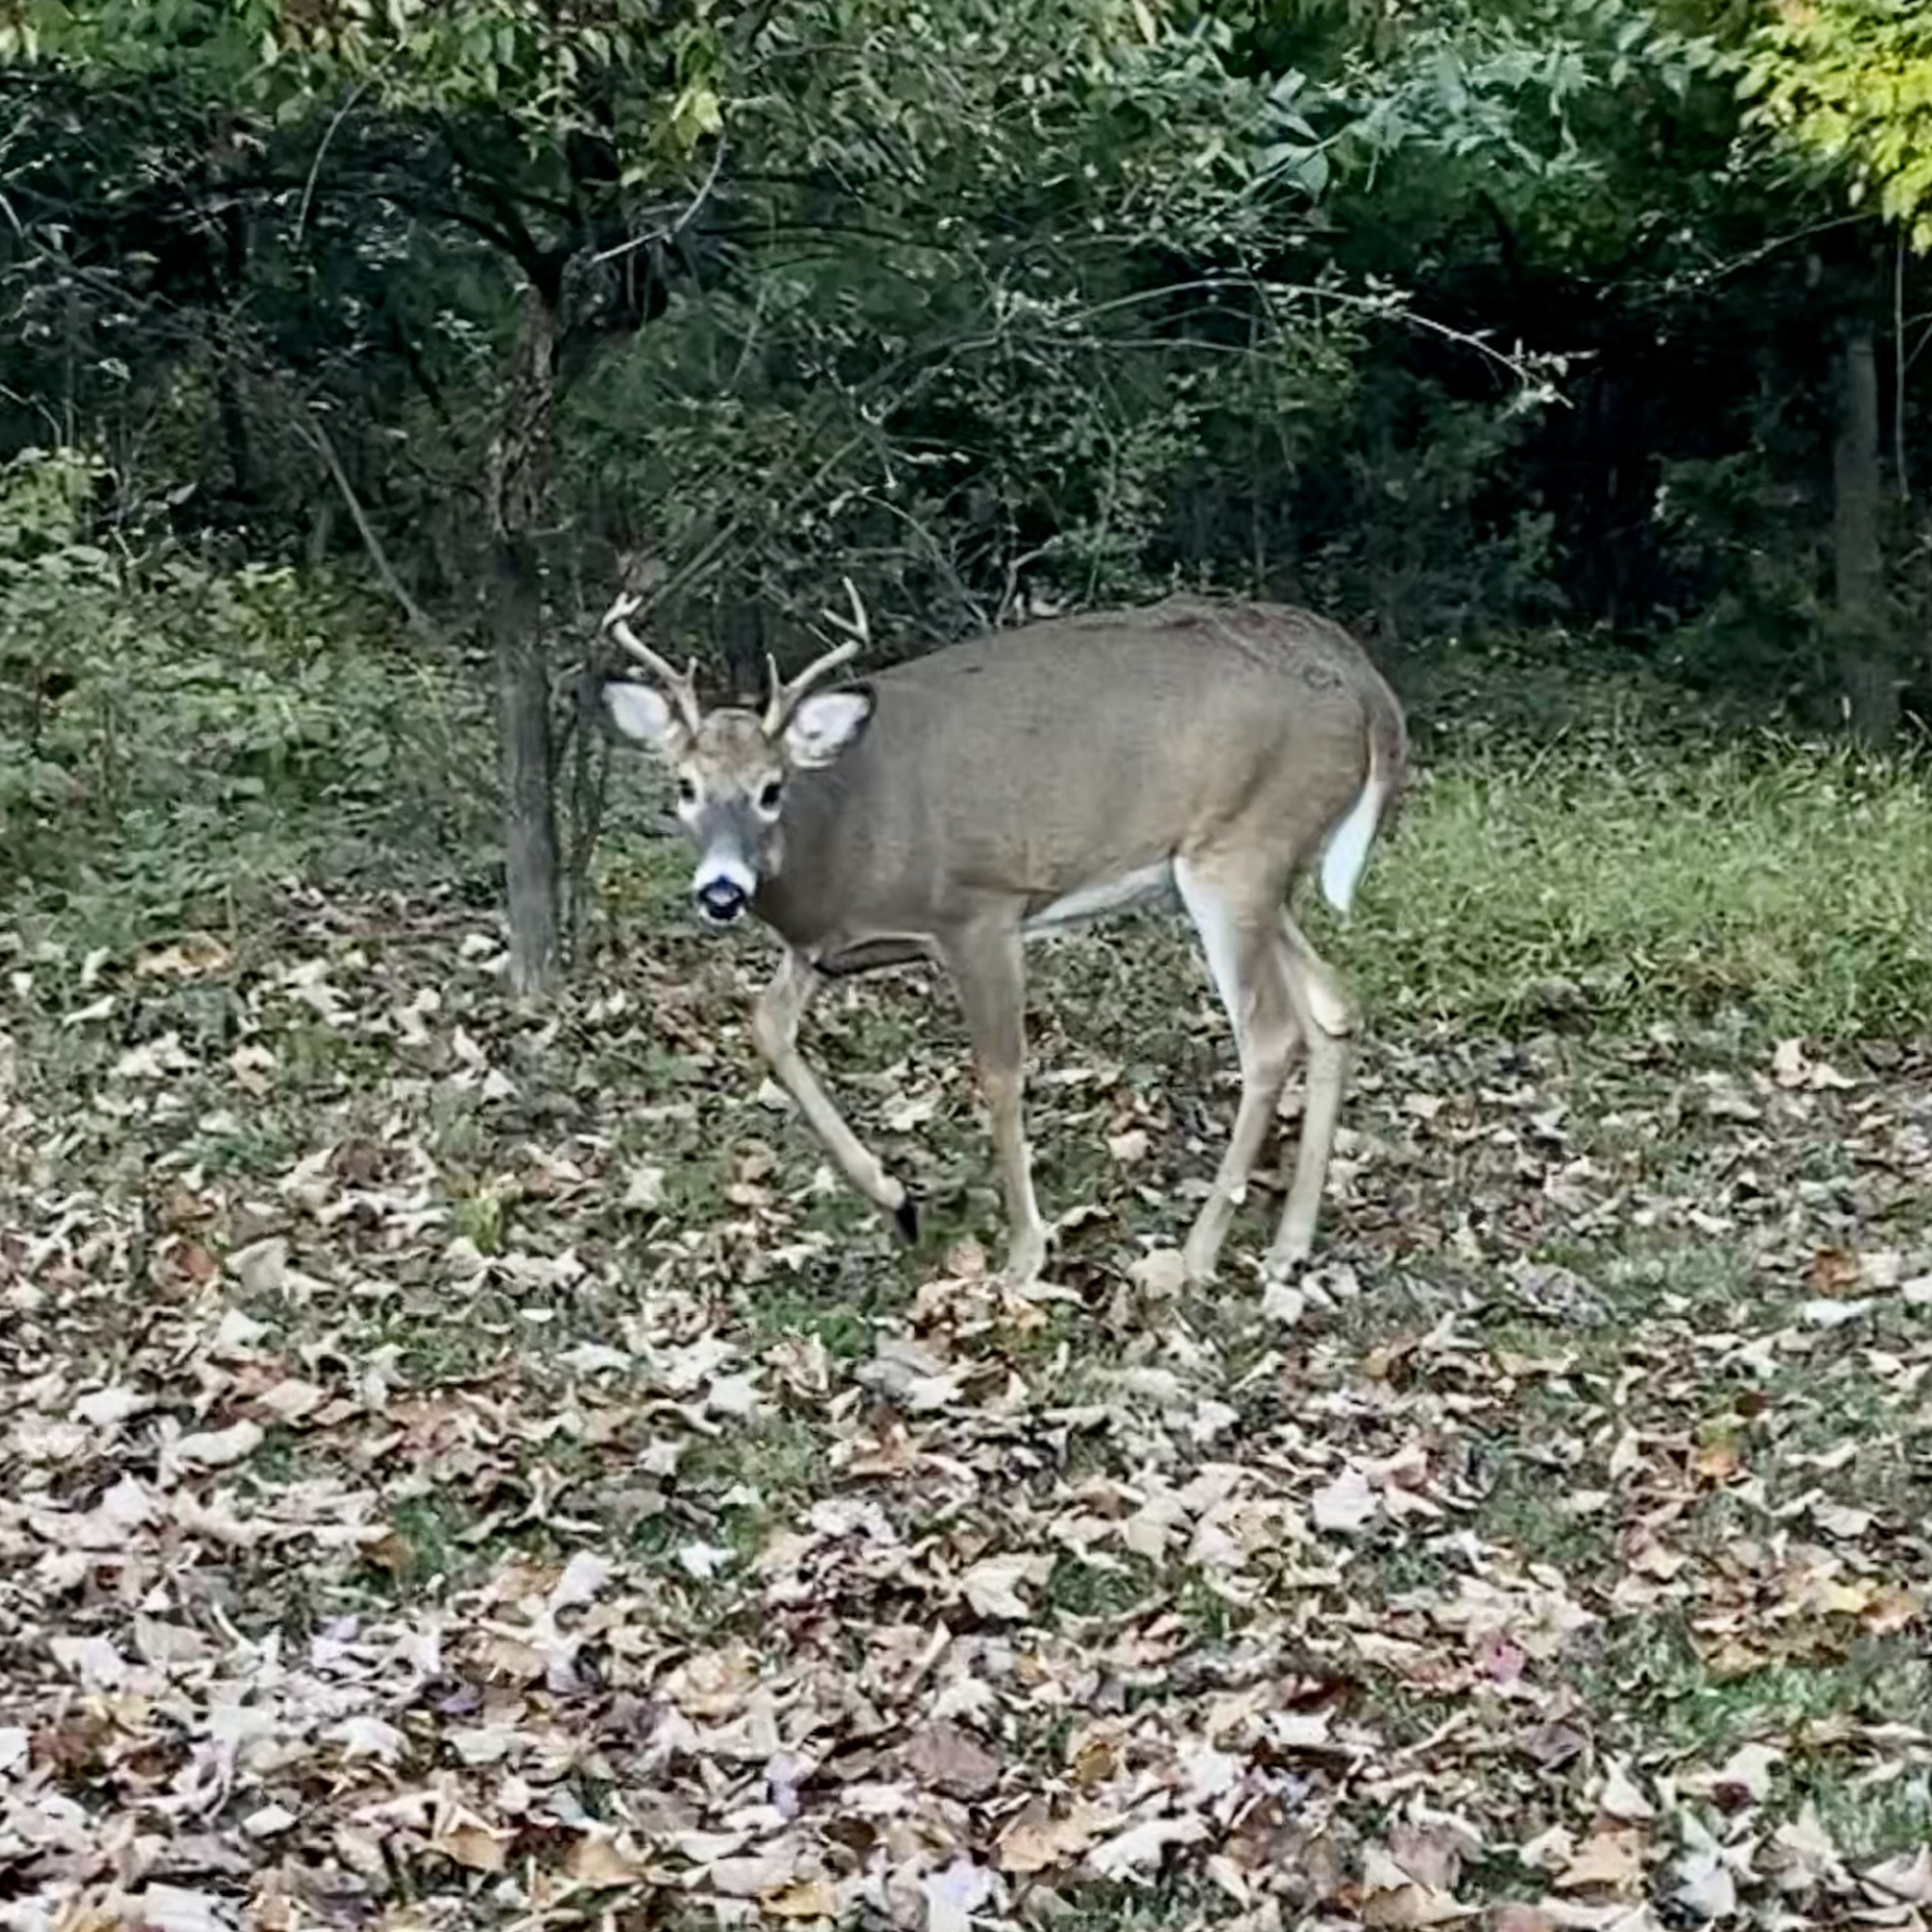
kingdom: Animalia
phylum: Chordata
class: Mammalia
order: Artiodactyla
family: Cervidae
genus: Odocoileus
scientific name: Odocoileus virginianus
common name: White-tailed deer
